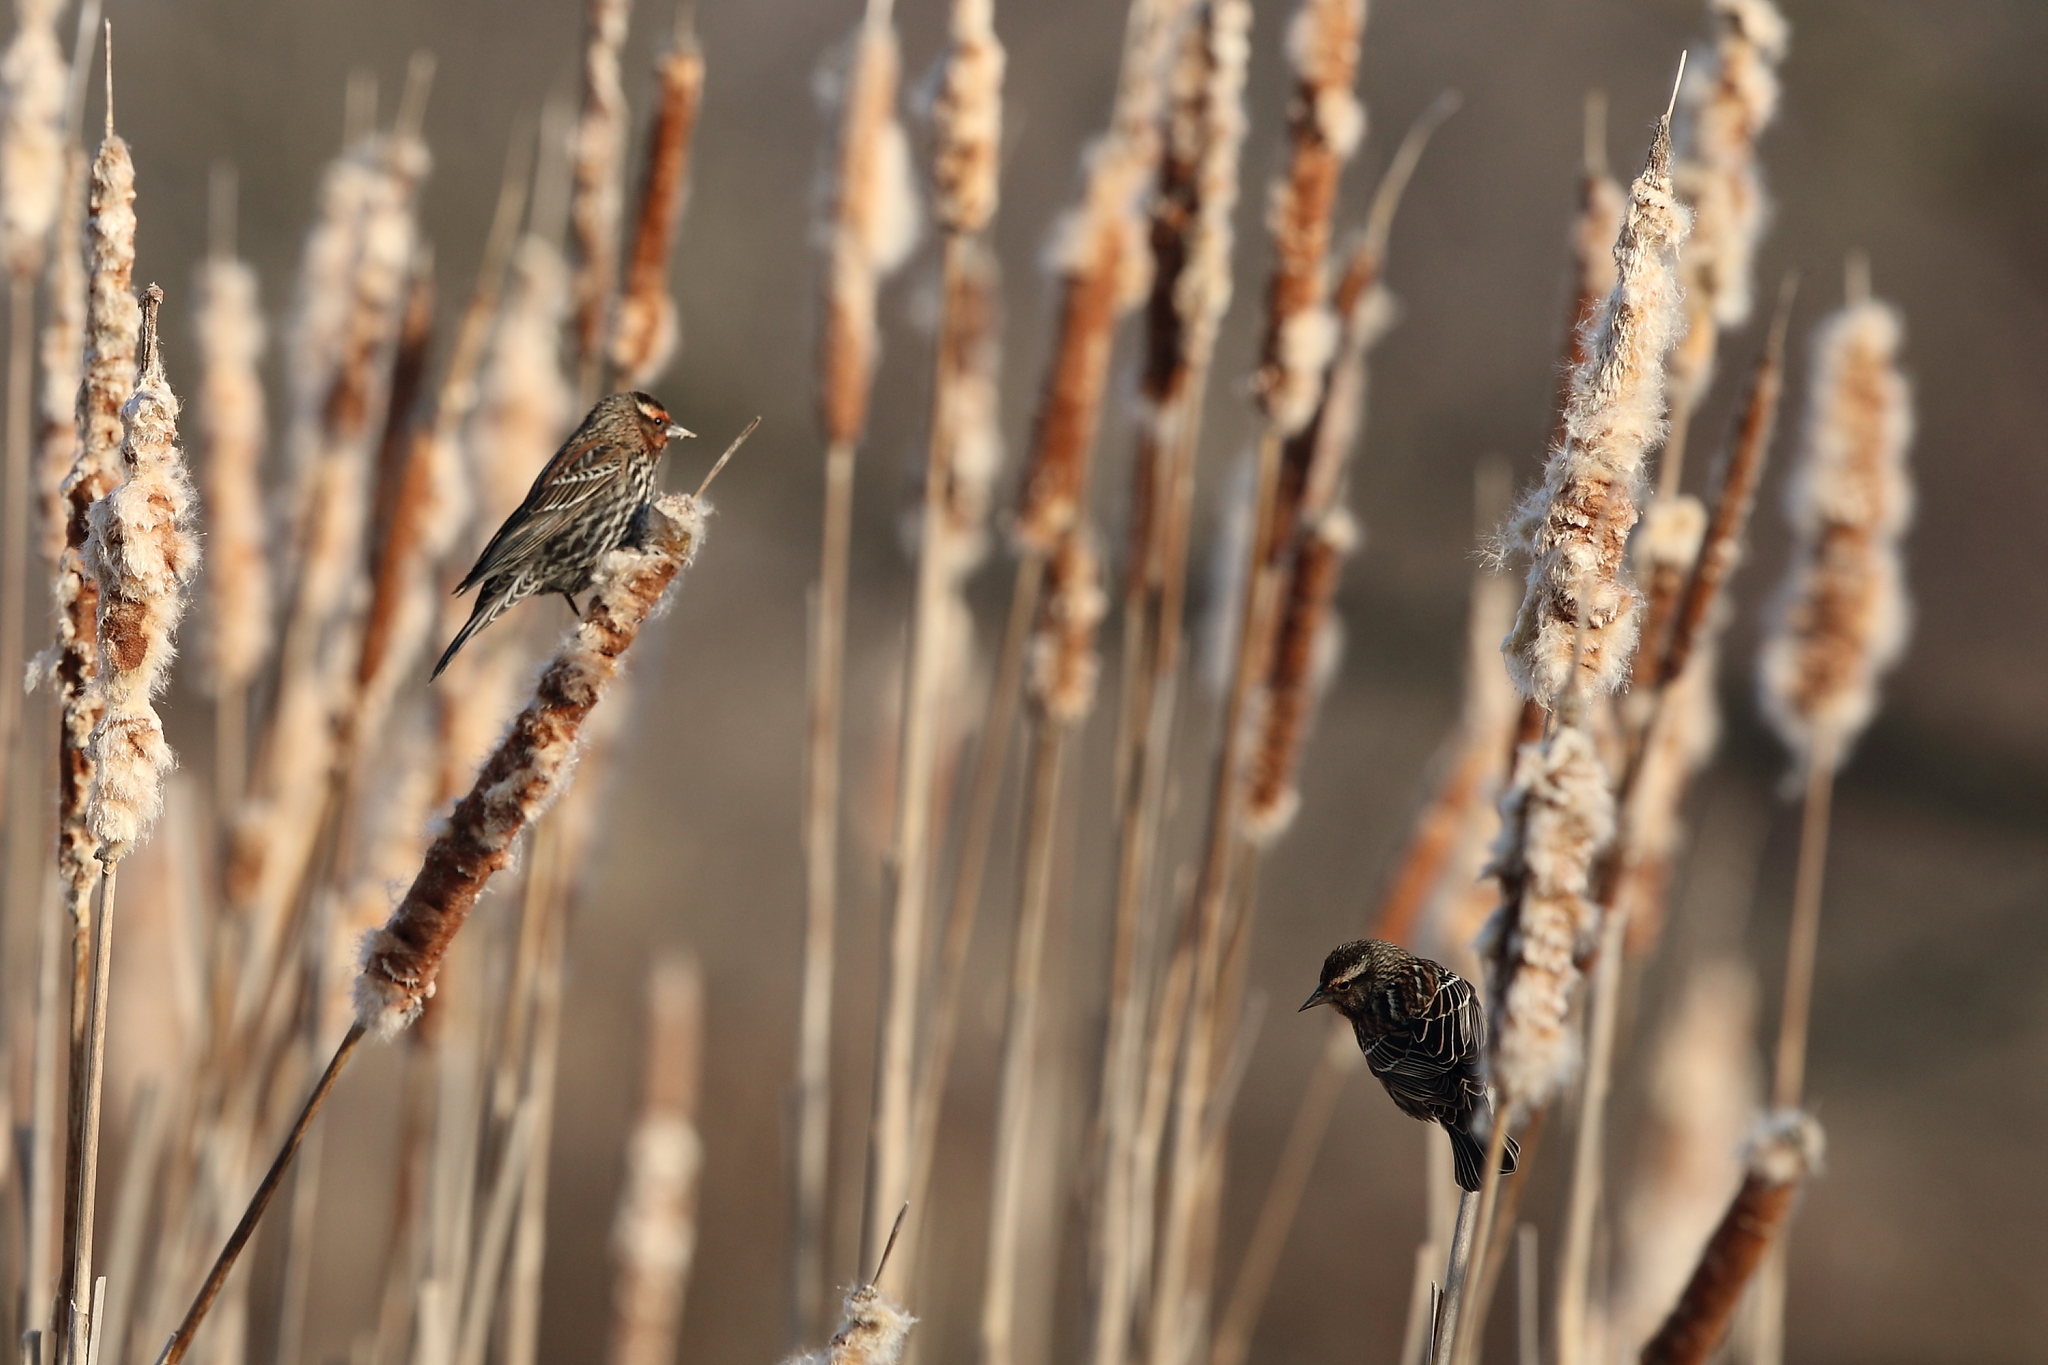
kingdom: Animalia
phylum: Chordata
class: Aves
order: Passeriformes
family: Icteridae
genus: Agelaius
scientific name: Agelaius phoeniceus
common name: Red-winged blackbird
